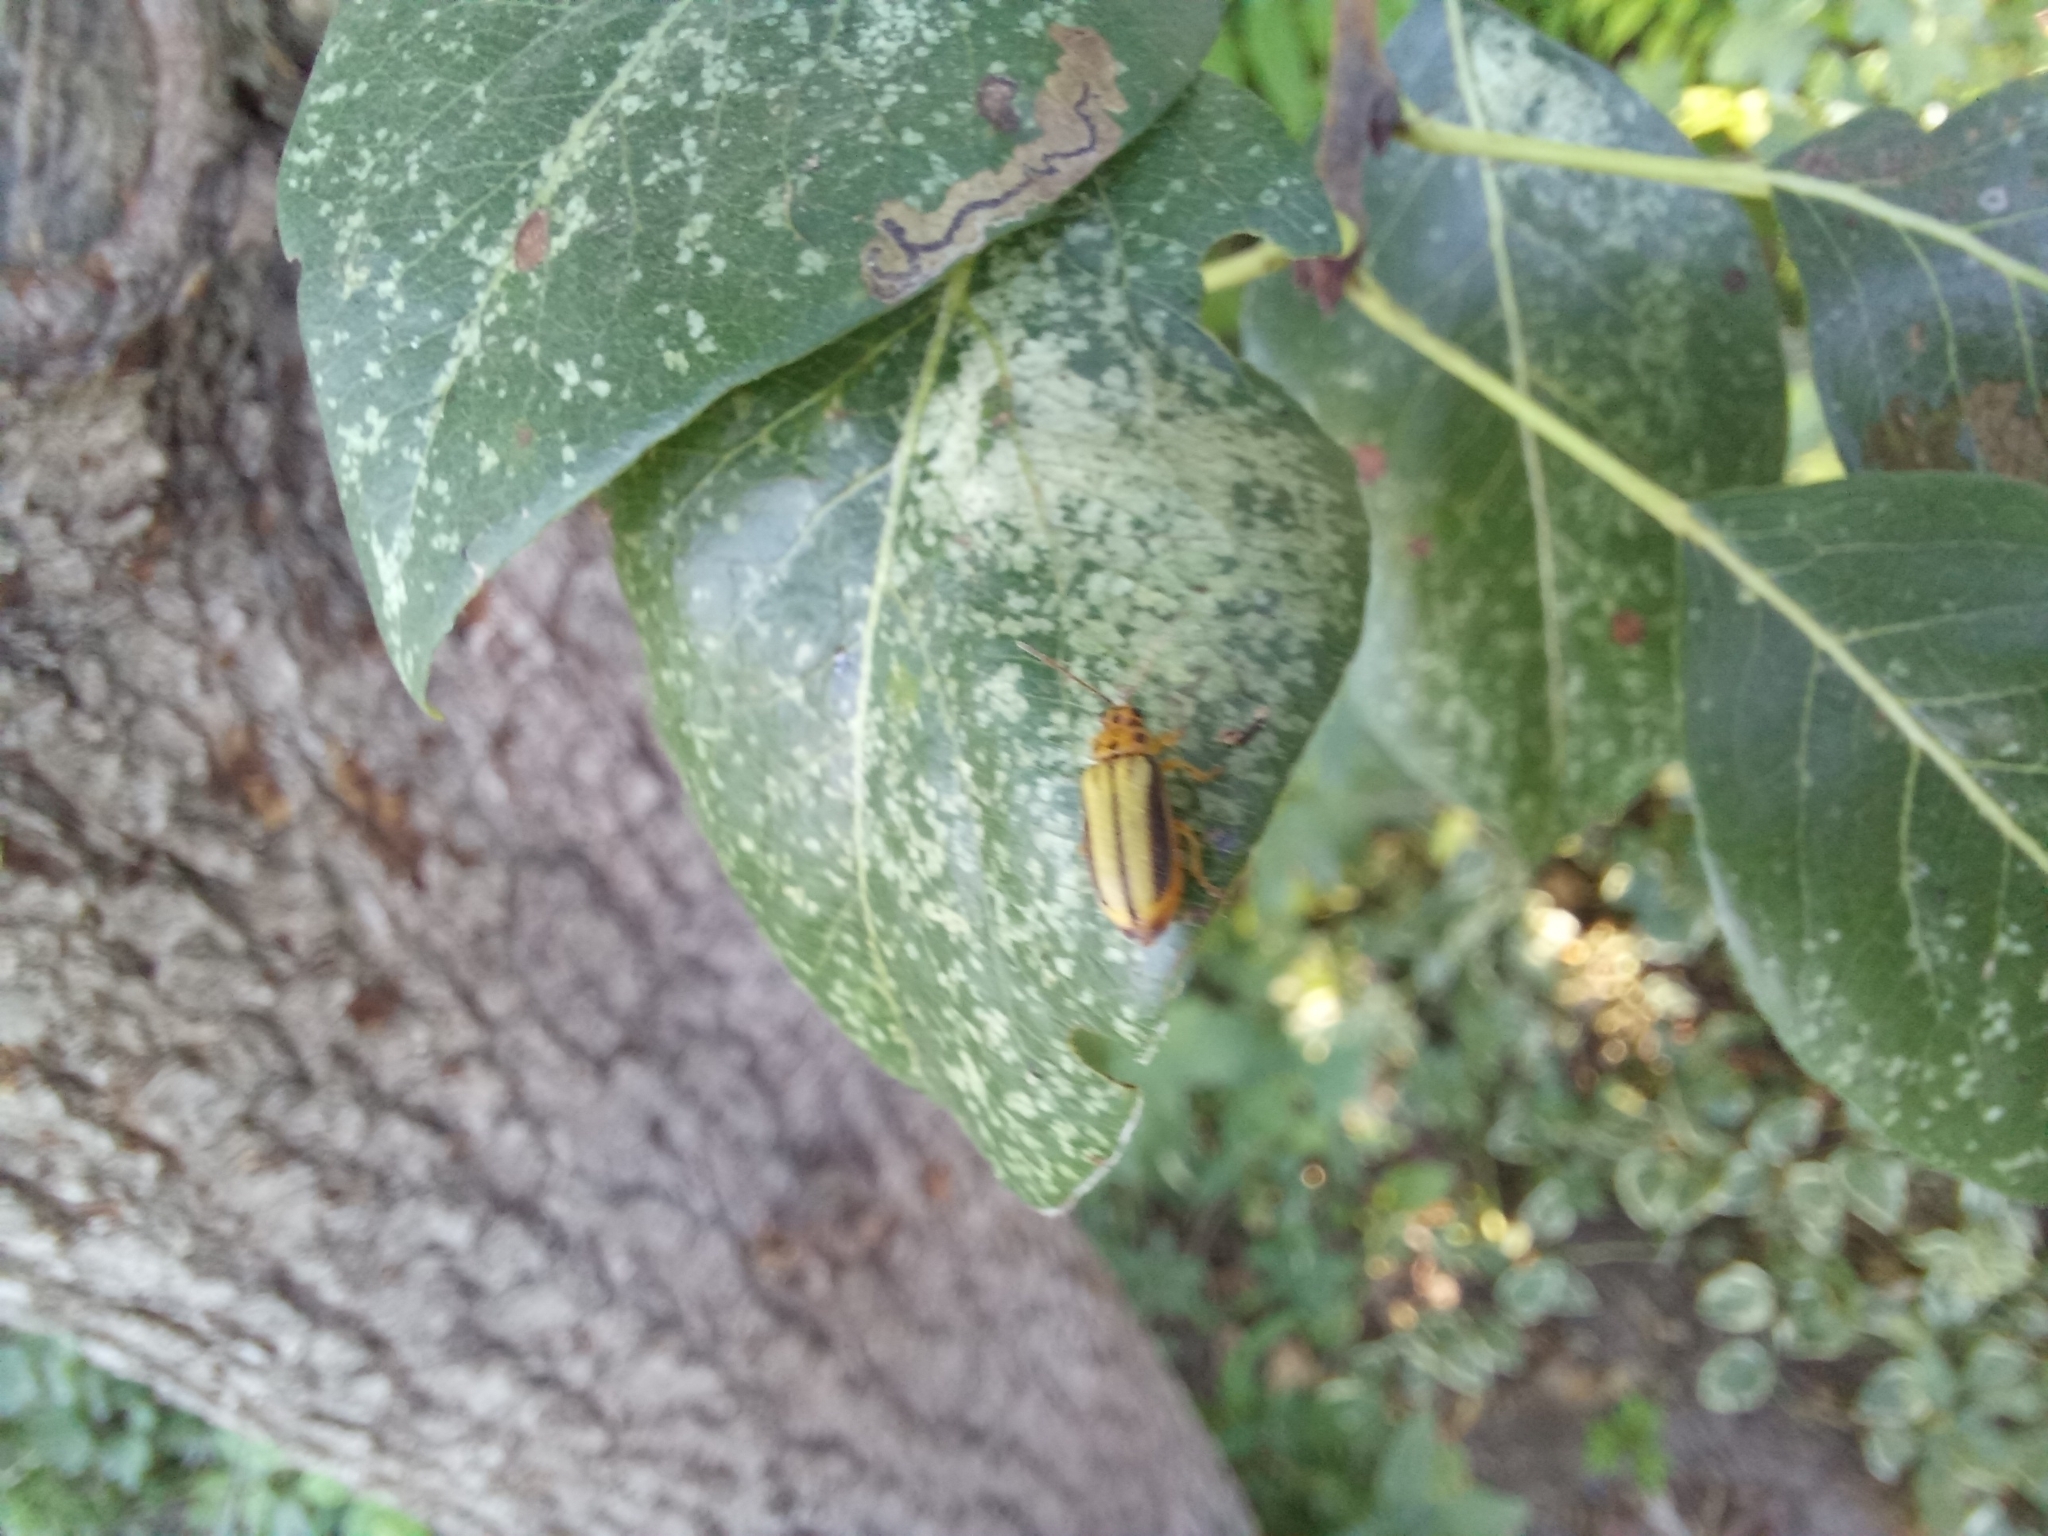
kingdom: Animalia
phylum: Arthropoda
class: Insecta
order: Coleoptera
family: Chrysomelidae
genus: Xanthogaleruca
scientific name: Xanthogaleruca luteola
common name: Elm leaf beetle
